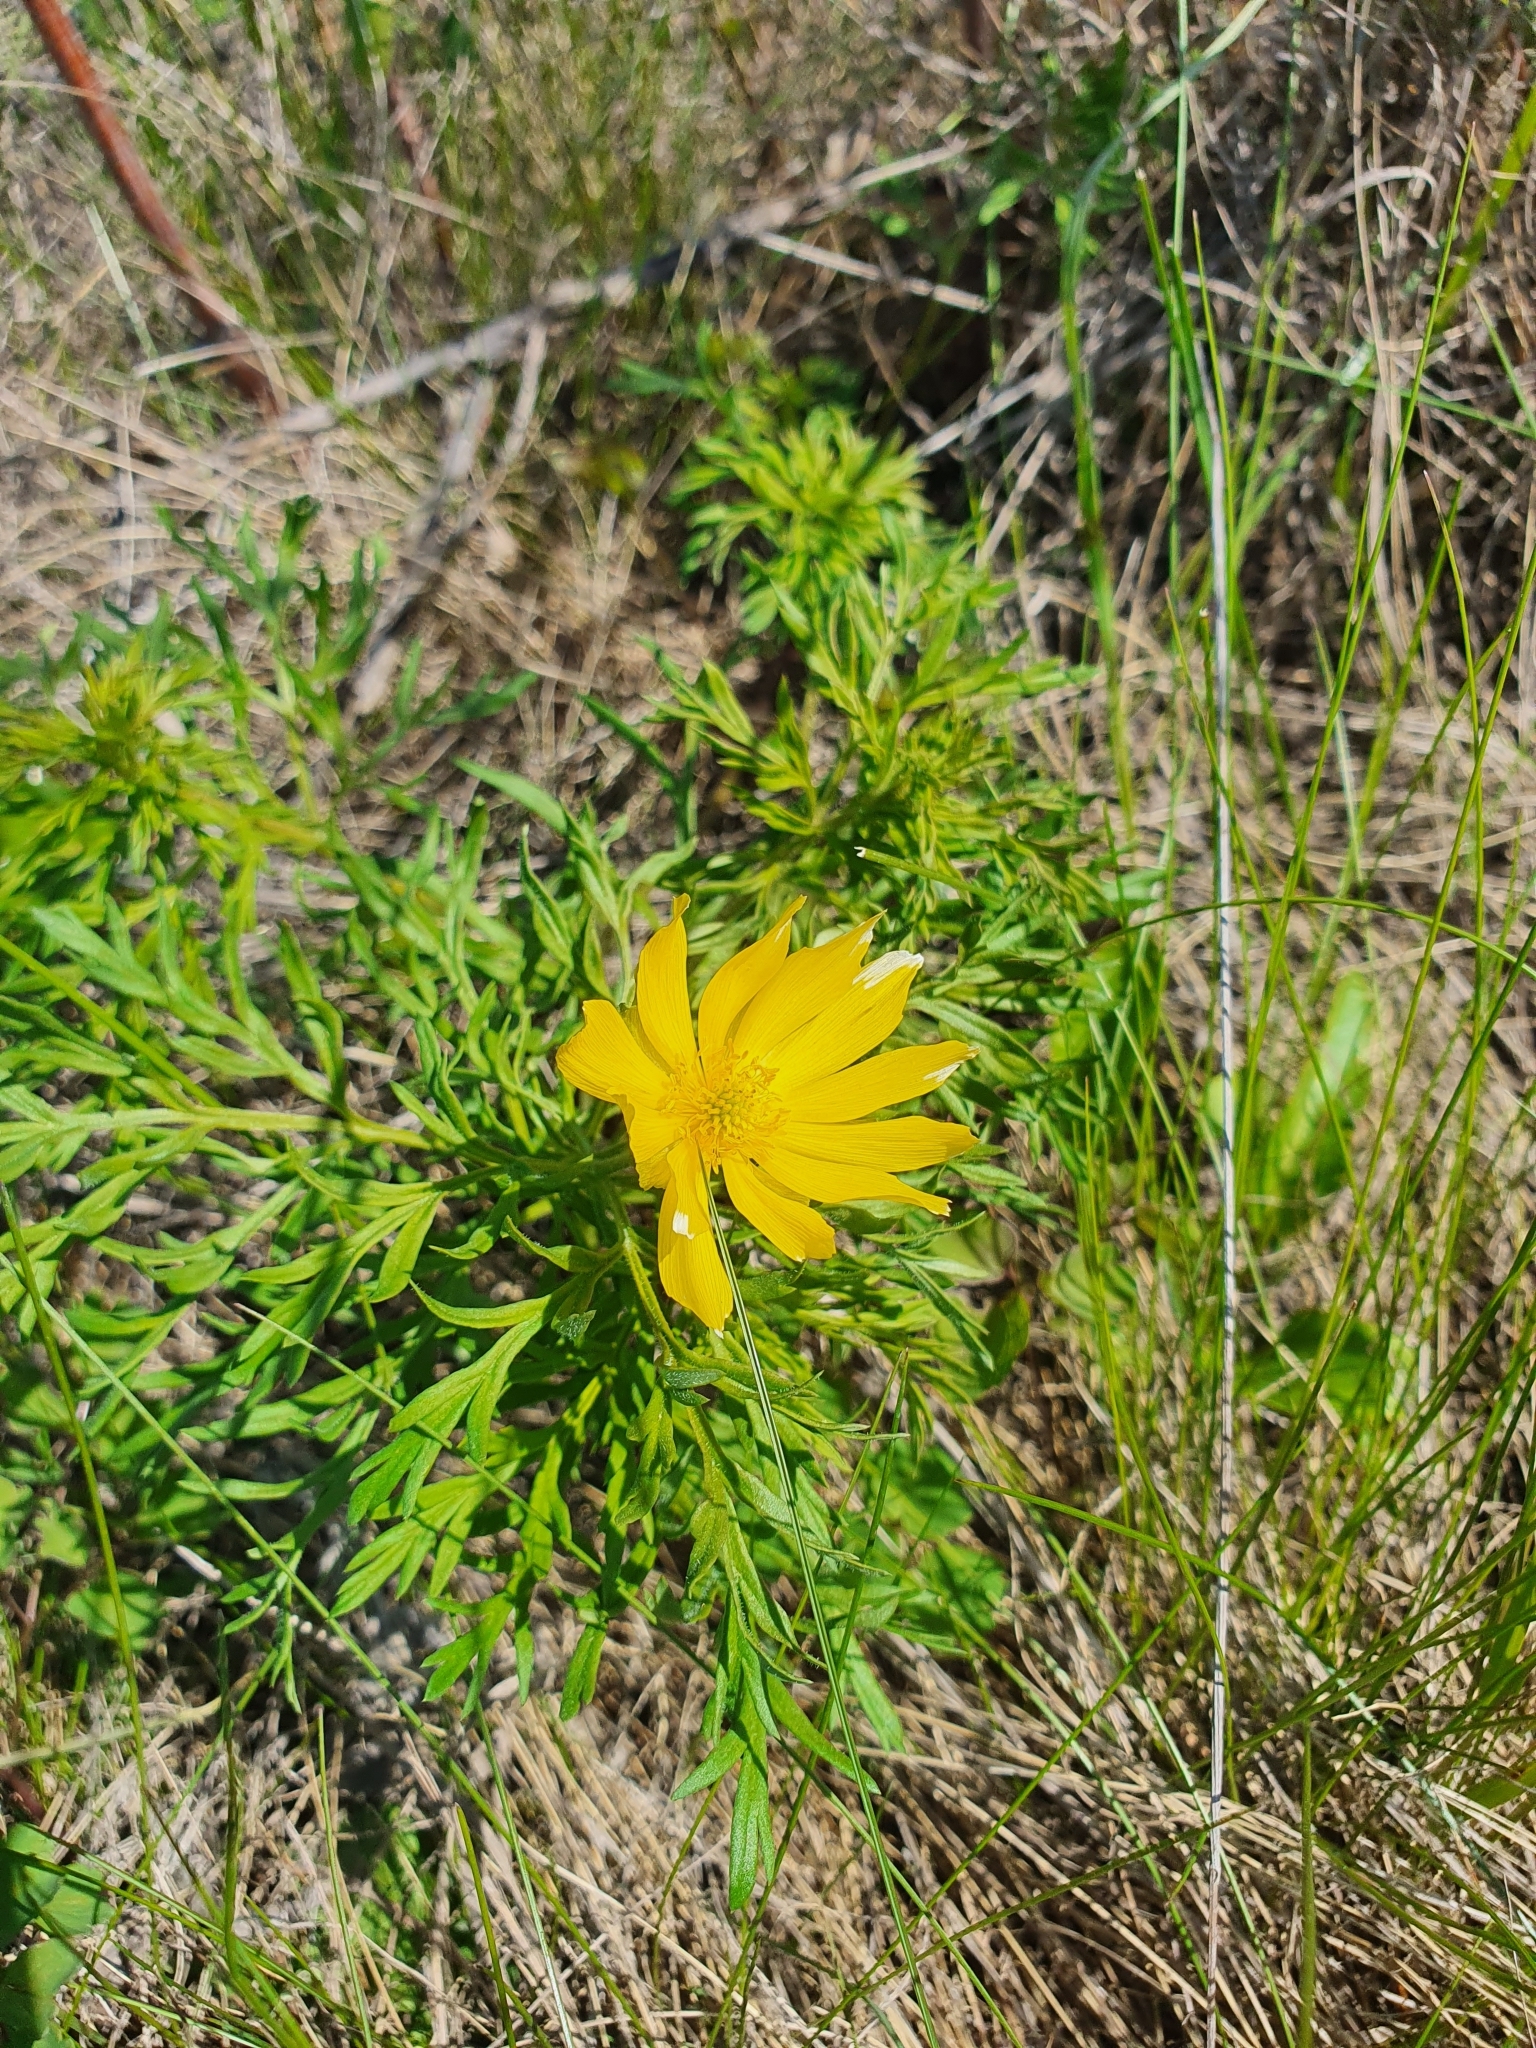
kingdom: Plantae
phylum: Tracheophyta
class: Magnoliopsida
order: Ranunculales
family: Ranunculaceae
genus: Adonis
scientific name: Adonis volgensis
